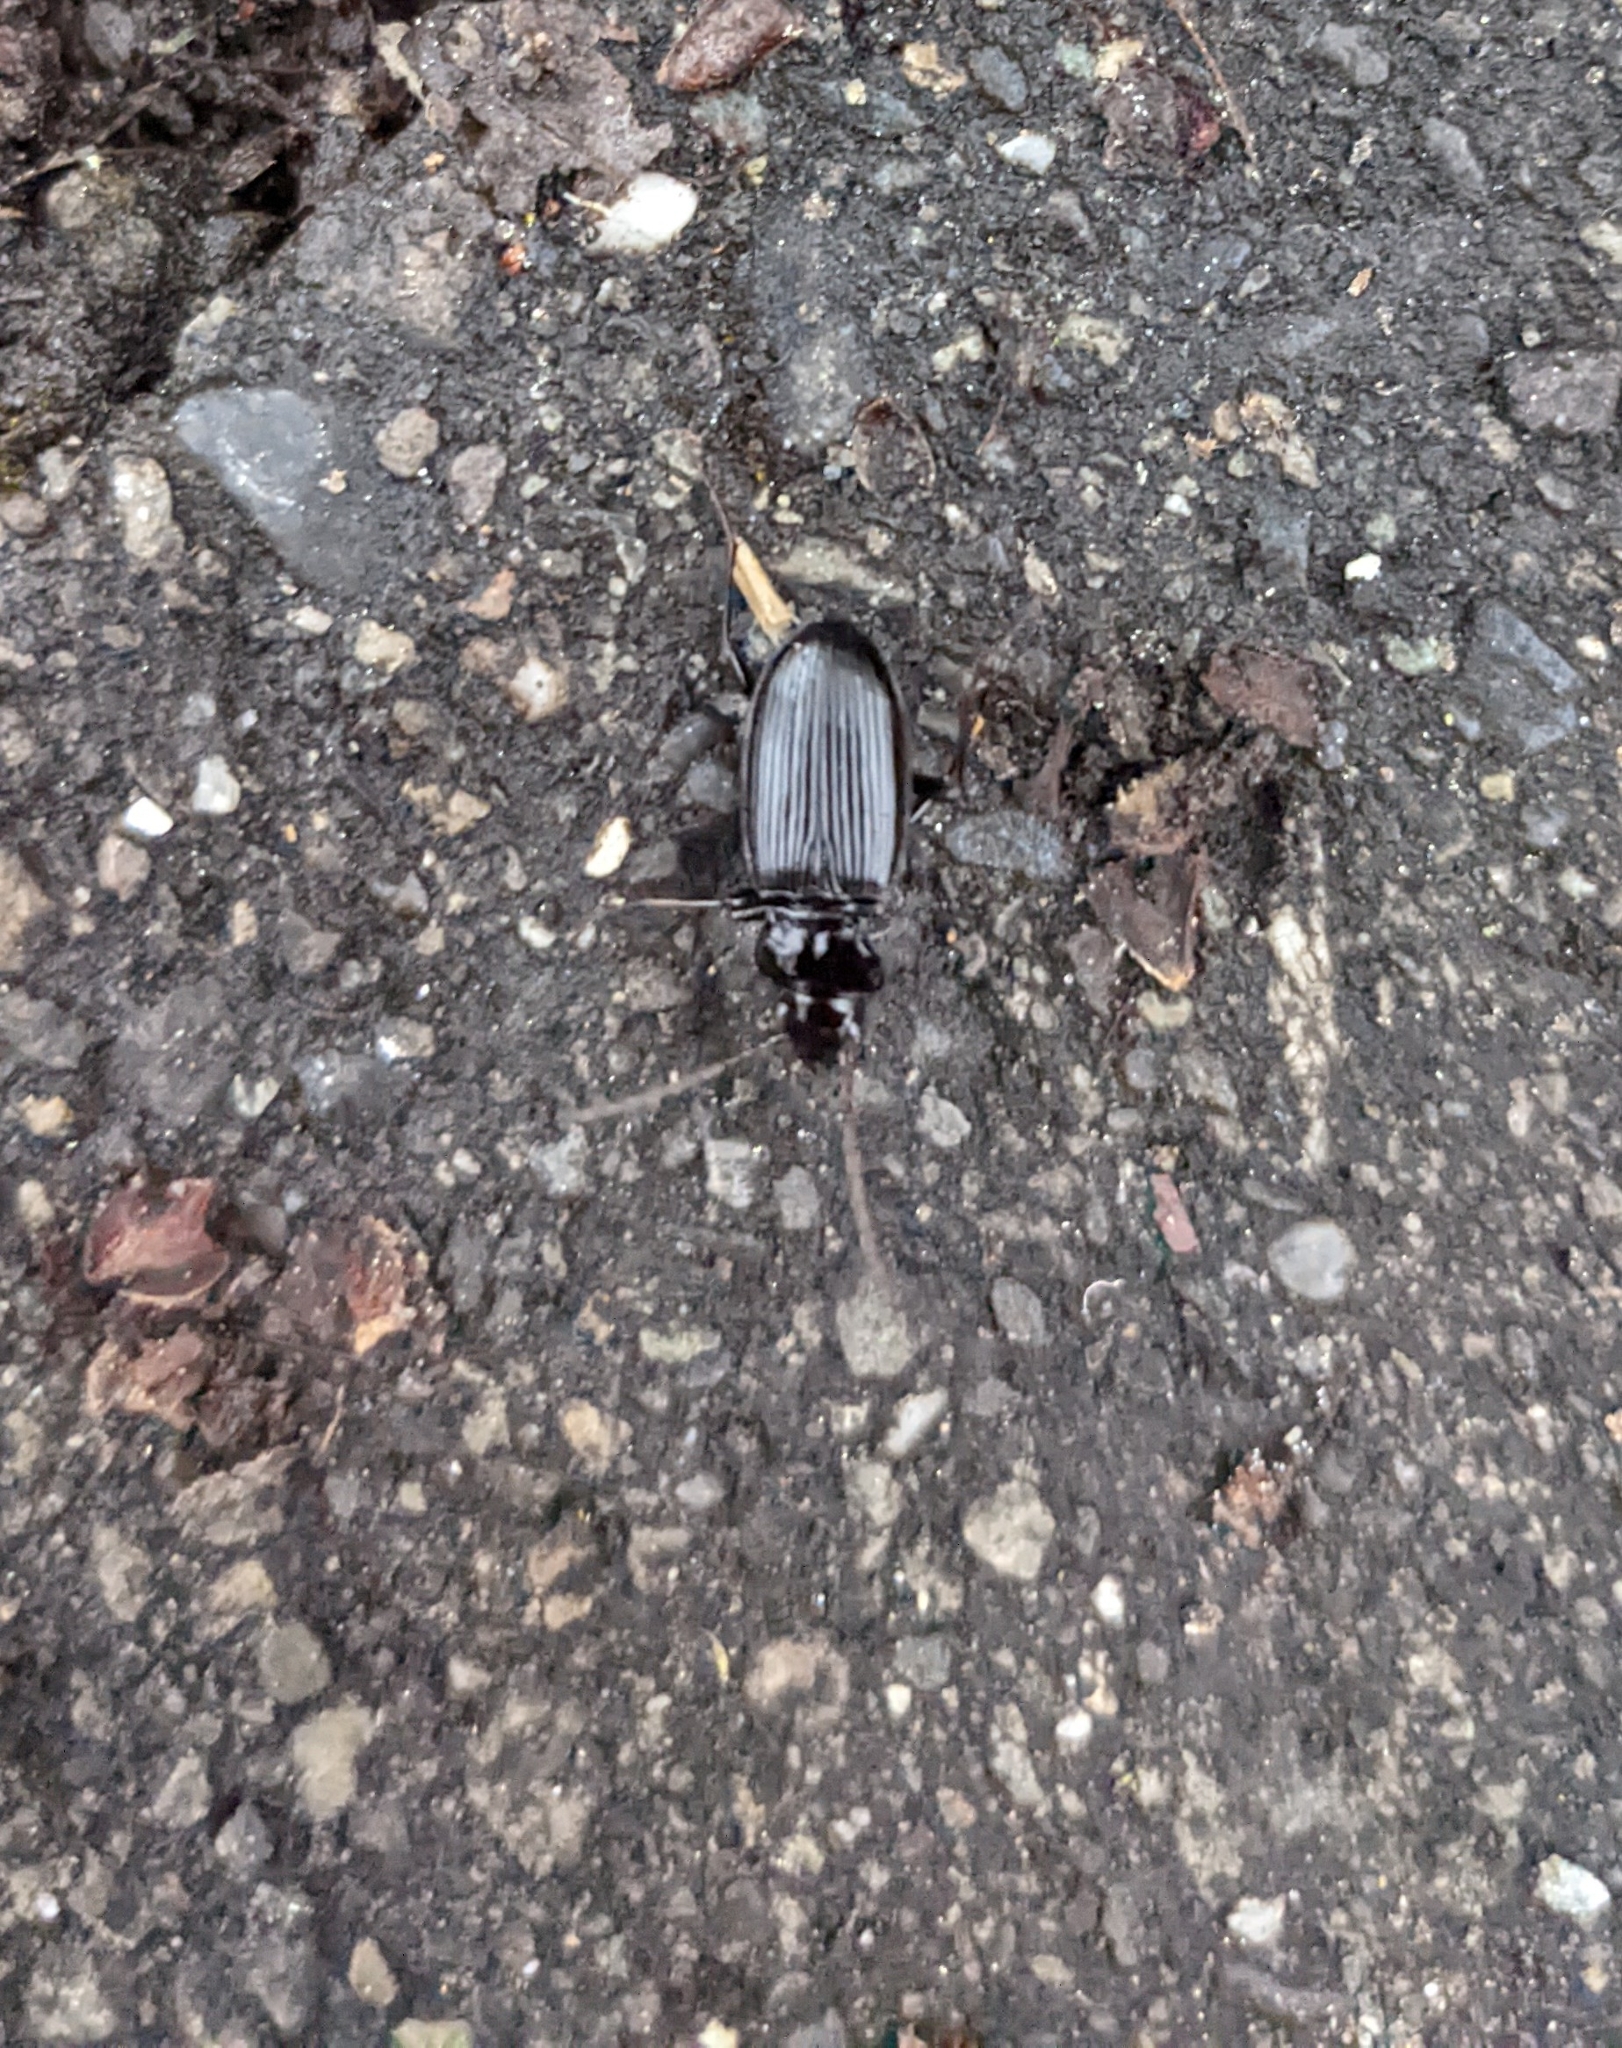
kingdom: Animalia
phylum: Arthropoda
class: Insecta
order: Coleoptera
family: Carabidae
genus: Nebria
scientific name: Nebria brevicollis
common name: Short-necked gazelle beetle
